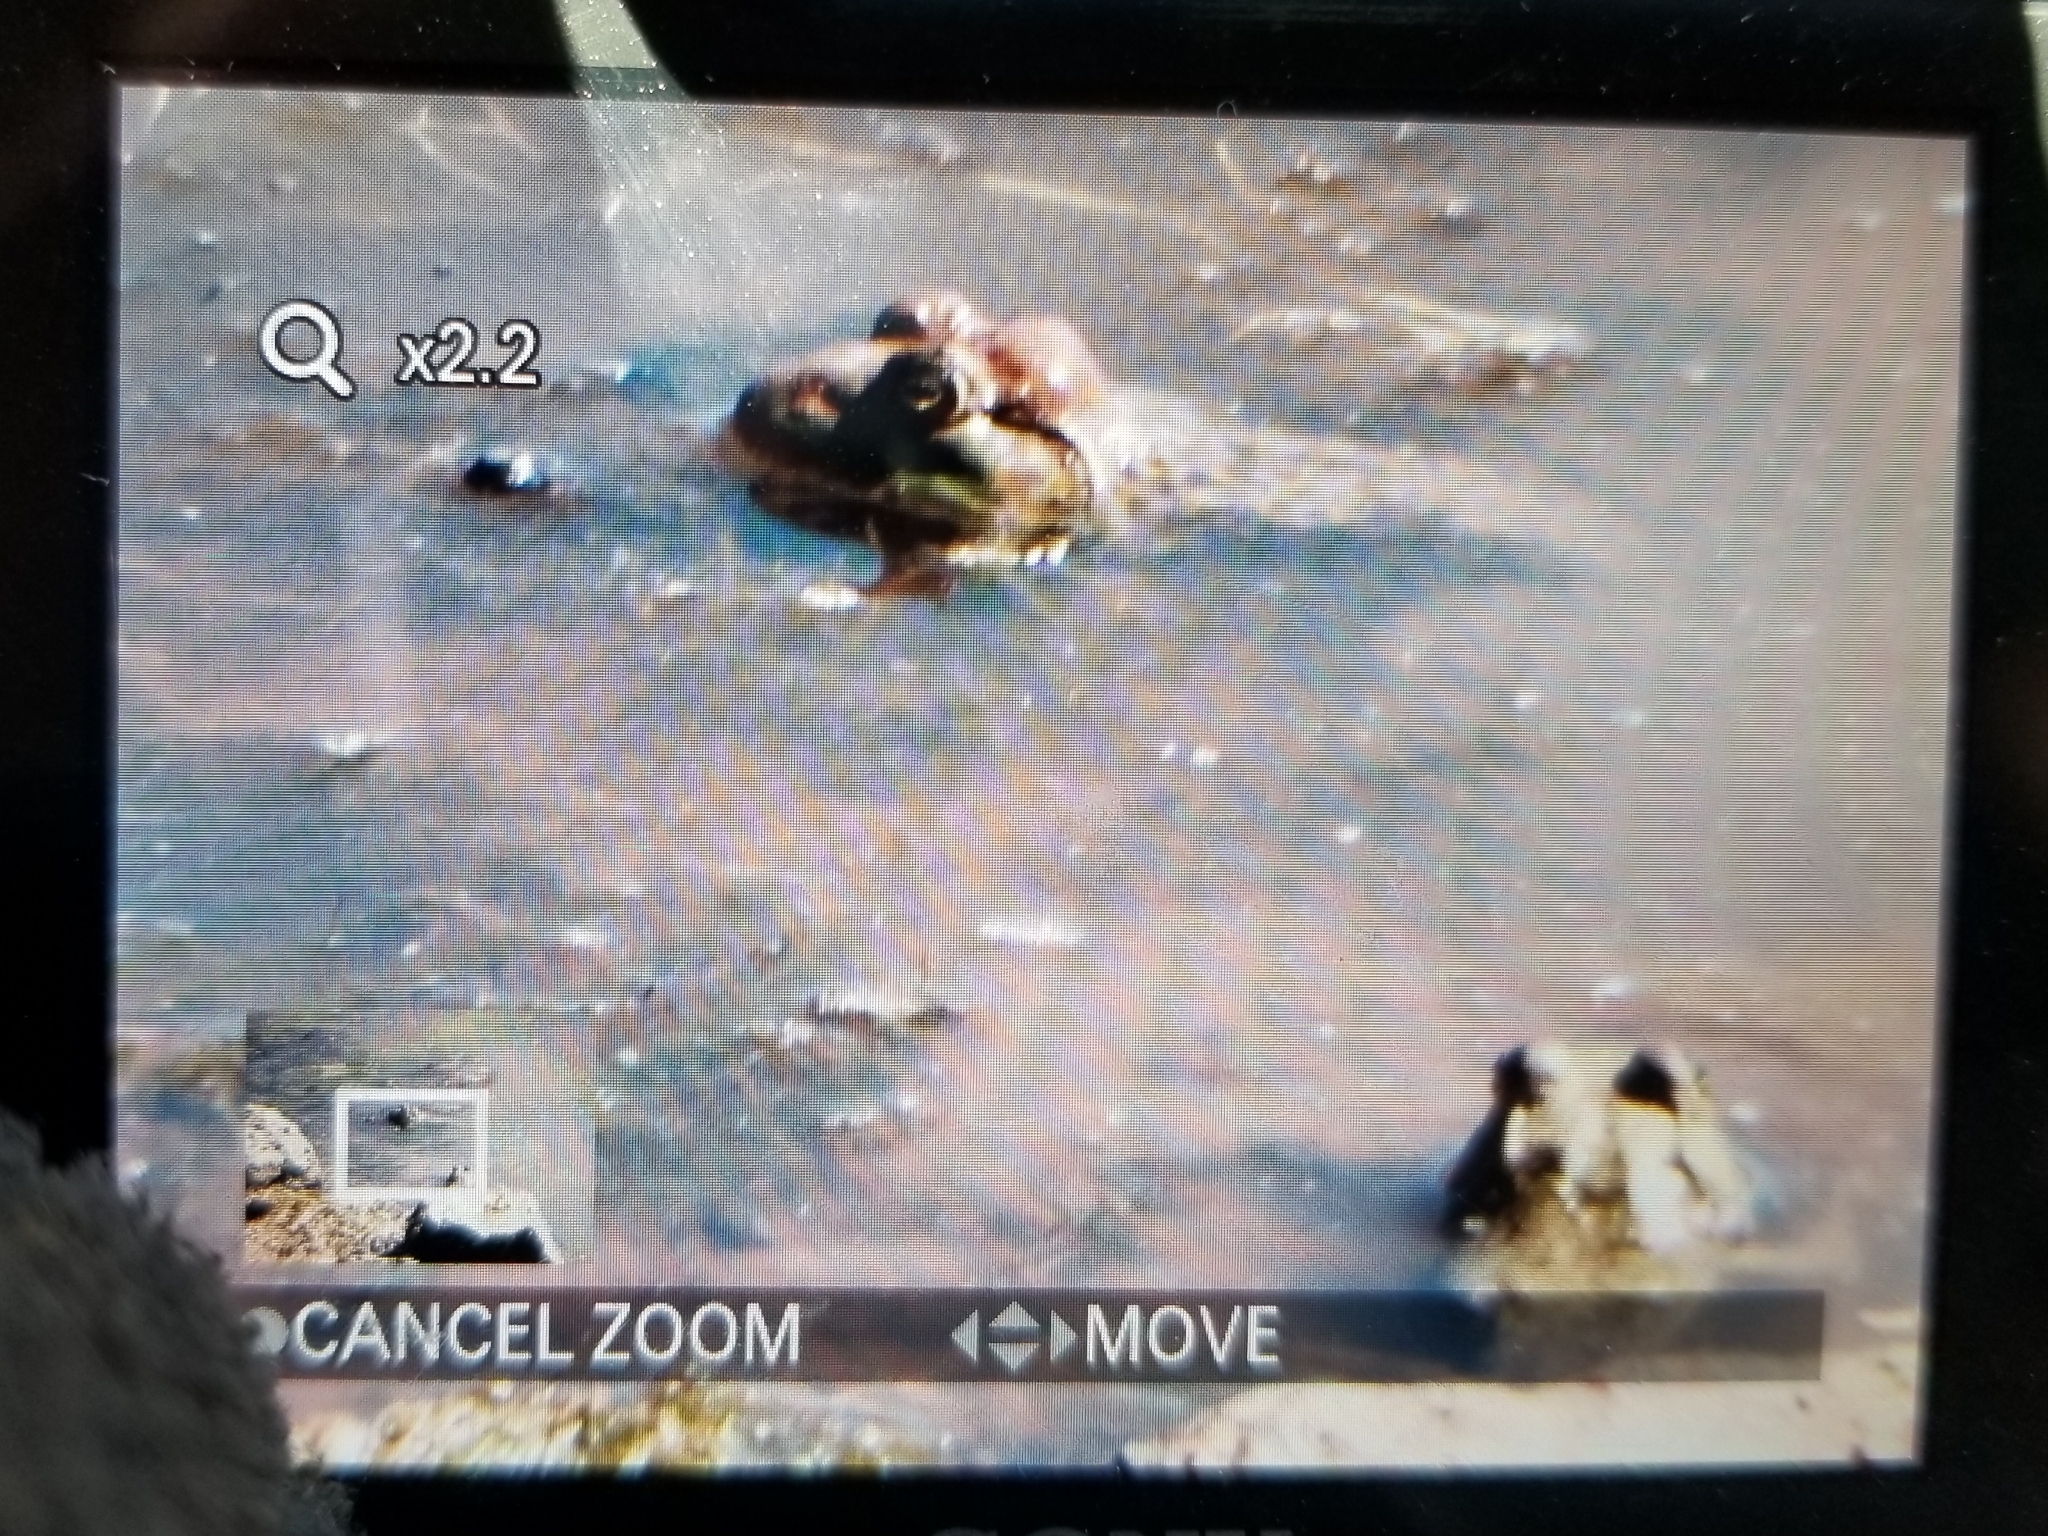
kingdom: Animalia
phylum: Chordata
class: Amphibia
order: Anura
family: Ranidae
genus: Lithobates
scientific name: Lithobates catesbeianus
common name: American bullfrog
